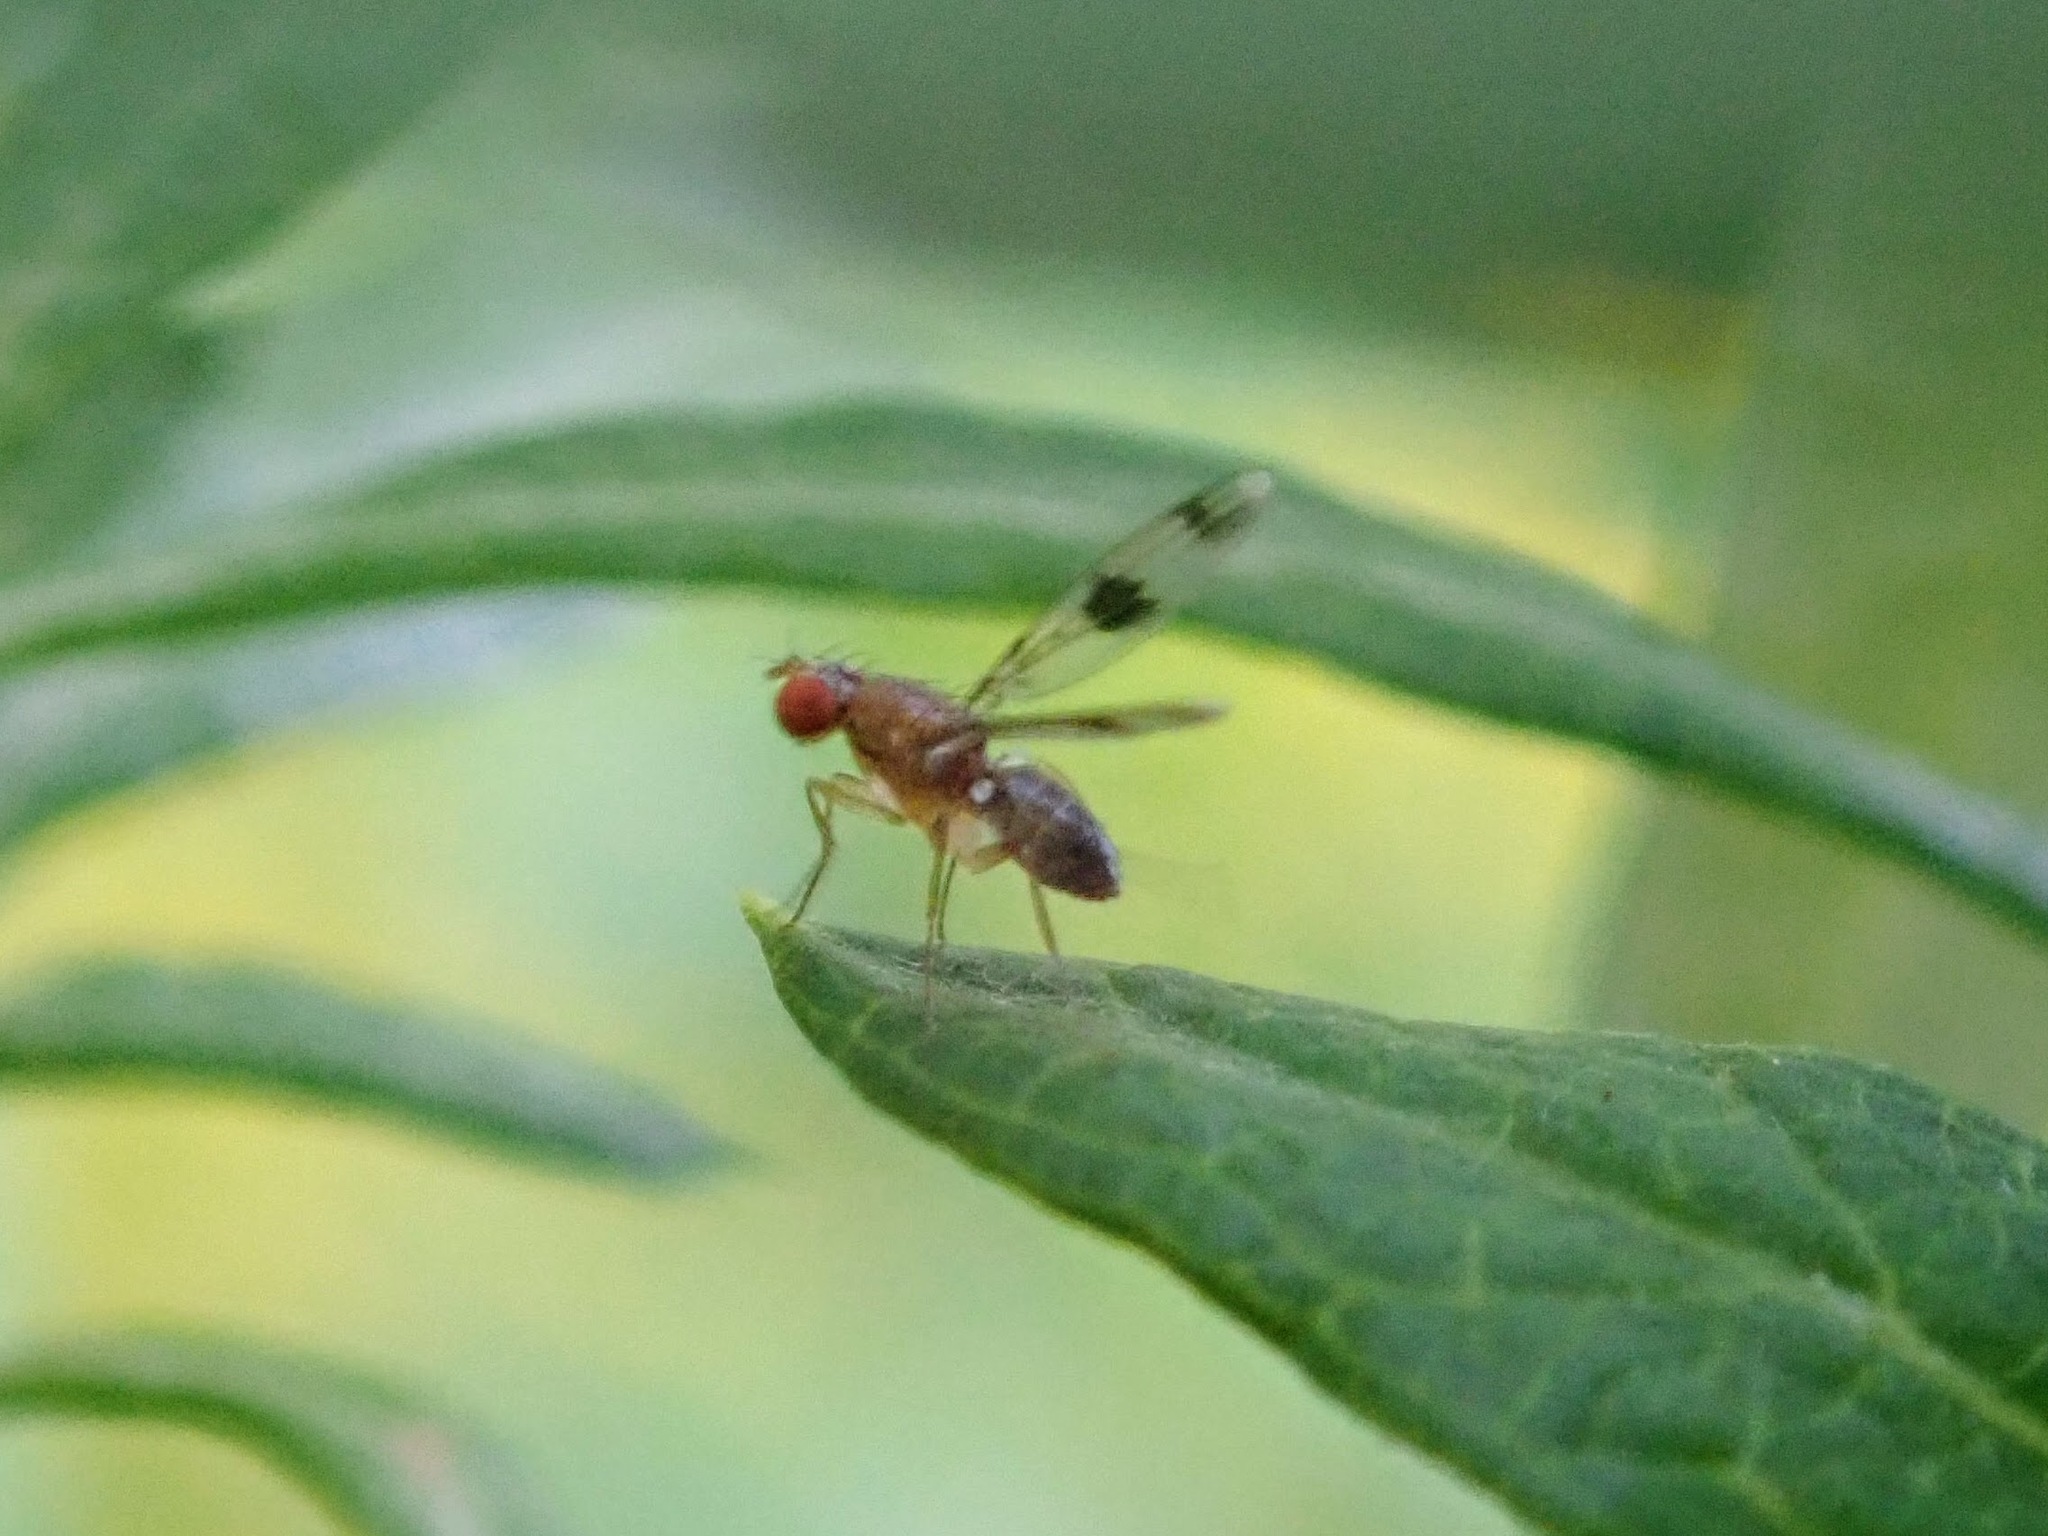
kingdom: Animalia
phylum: Arthropoda
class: Insecta
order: Diptera
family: Drosophilidae
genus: Chymomyza
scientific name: Chymomyza amoena
